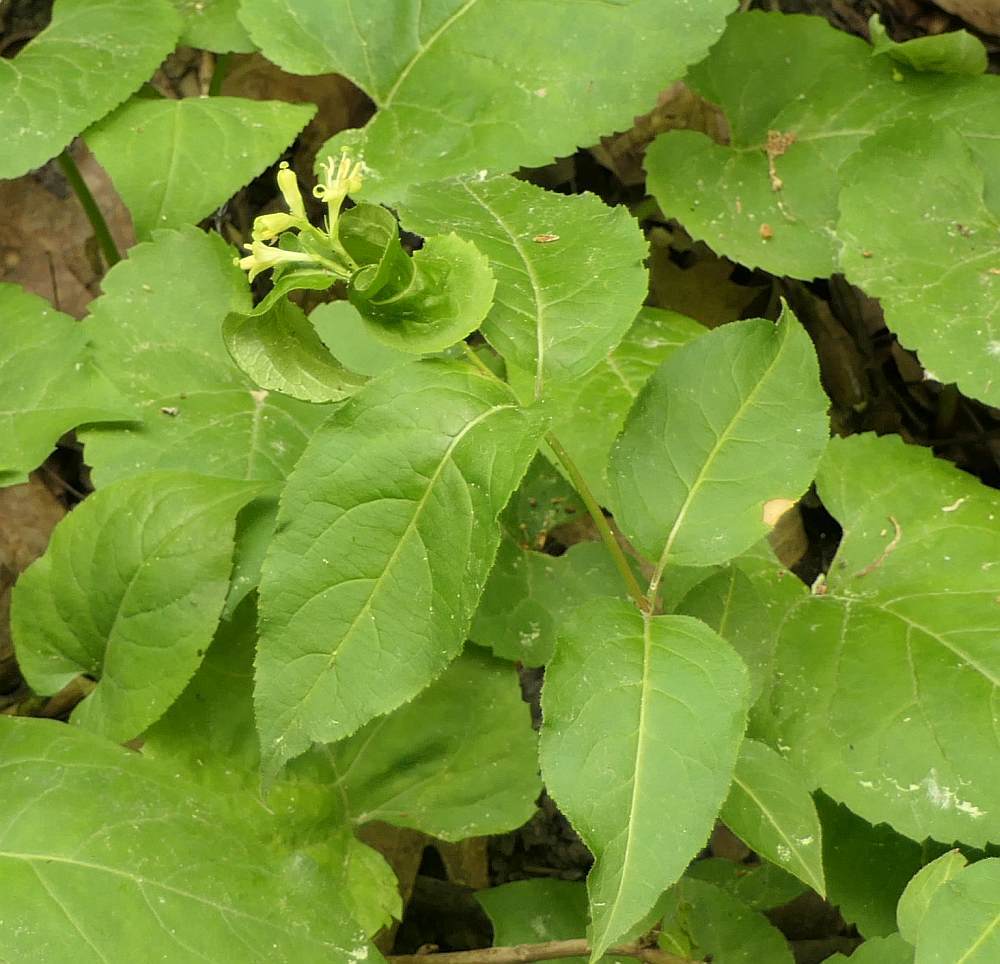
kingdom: Plantae
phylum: Tracheophyta
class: Magnoliopsida
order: Dipsacales
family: Caprifoliaceae
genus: Diervilla
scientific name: Diervilla lonicera
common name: Bush-honeysuckle
